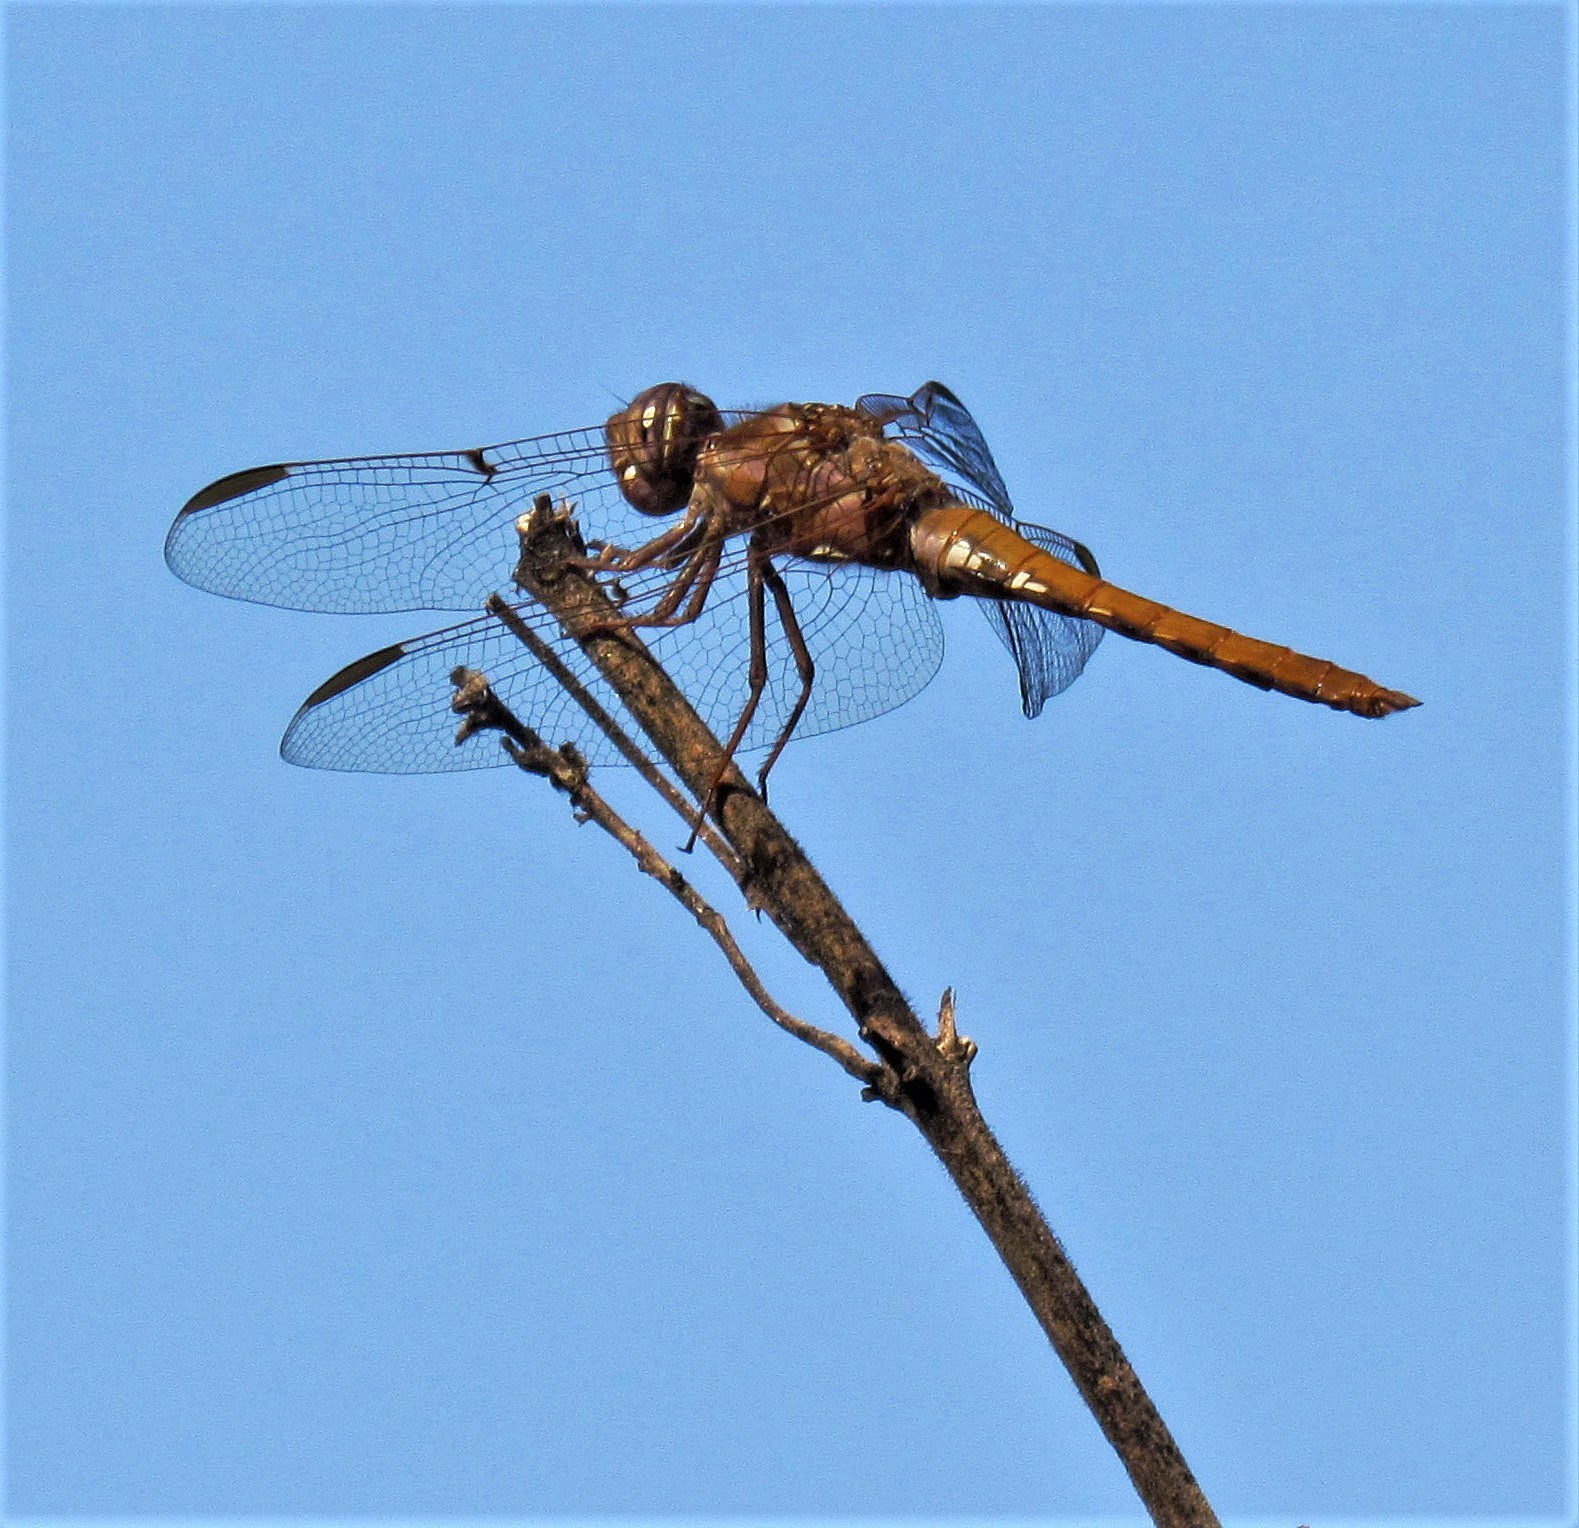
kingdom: Animalia
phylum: Arthropoda
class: Insecta
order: Odonata
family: Libellulidae
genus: Orthemis
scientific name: Orthemis nodiplaga
